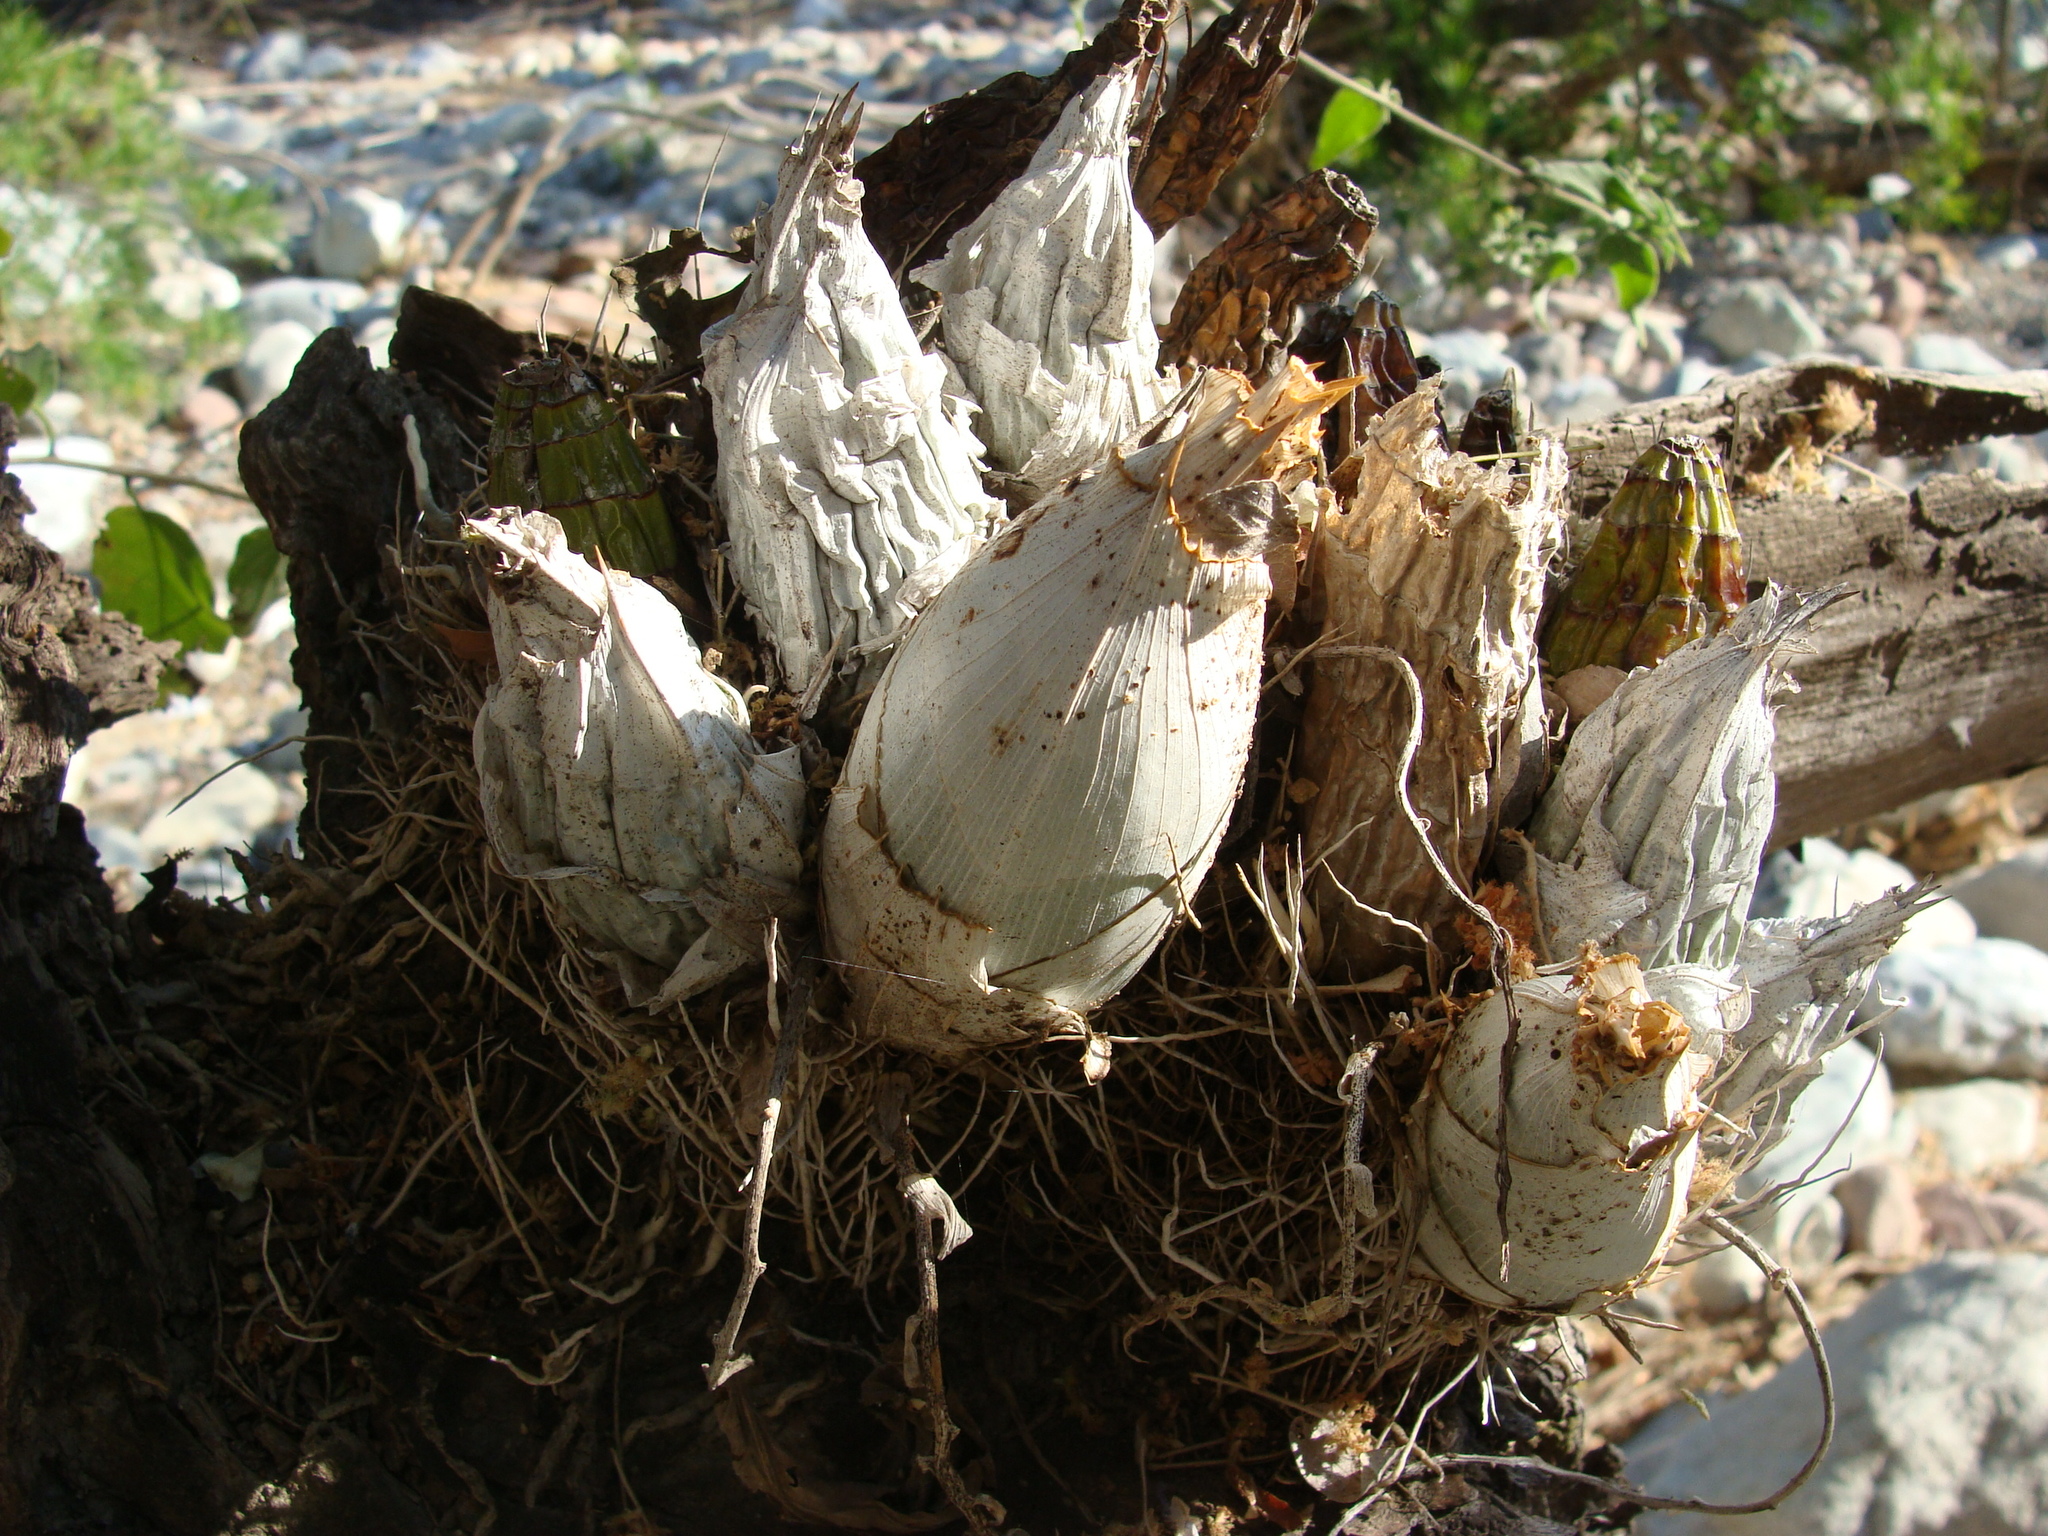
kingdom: Plantae
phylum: Tracheophyta
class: Liliopsida
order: Asparagales
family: Orchidaceae
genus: Catasetum
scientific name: Catasetum integerrimum
